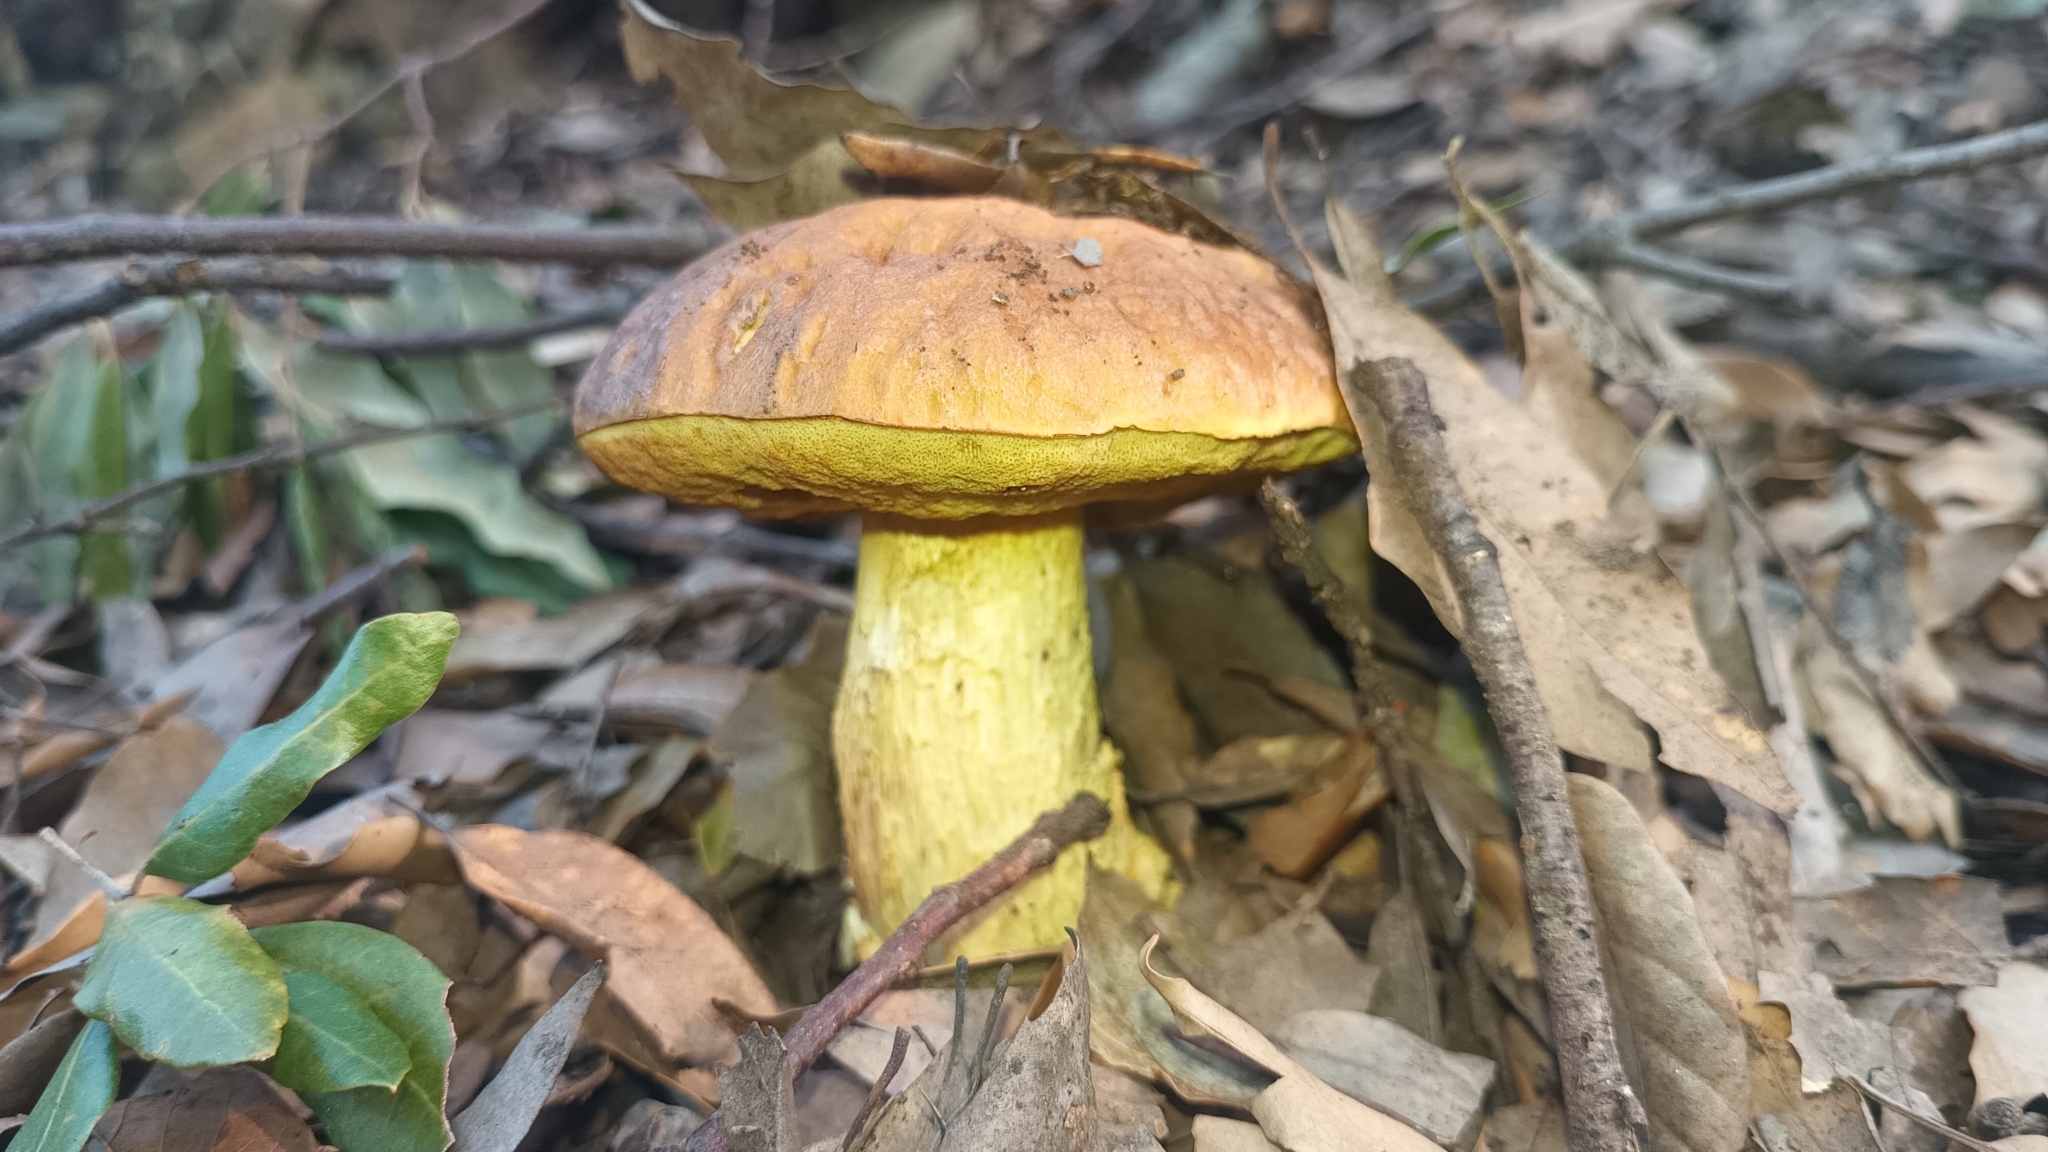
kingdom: Fungi
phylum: Basidiomycota
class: Agaricomycetes
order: Boletales
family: Boletaceae
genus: Leccinellum
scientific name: Leccinellum lepidum
